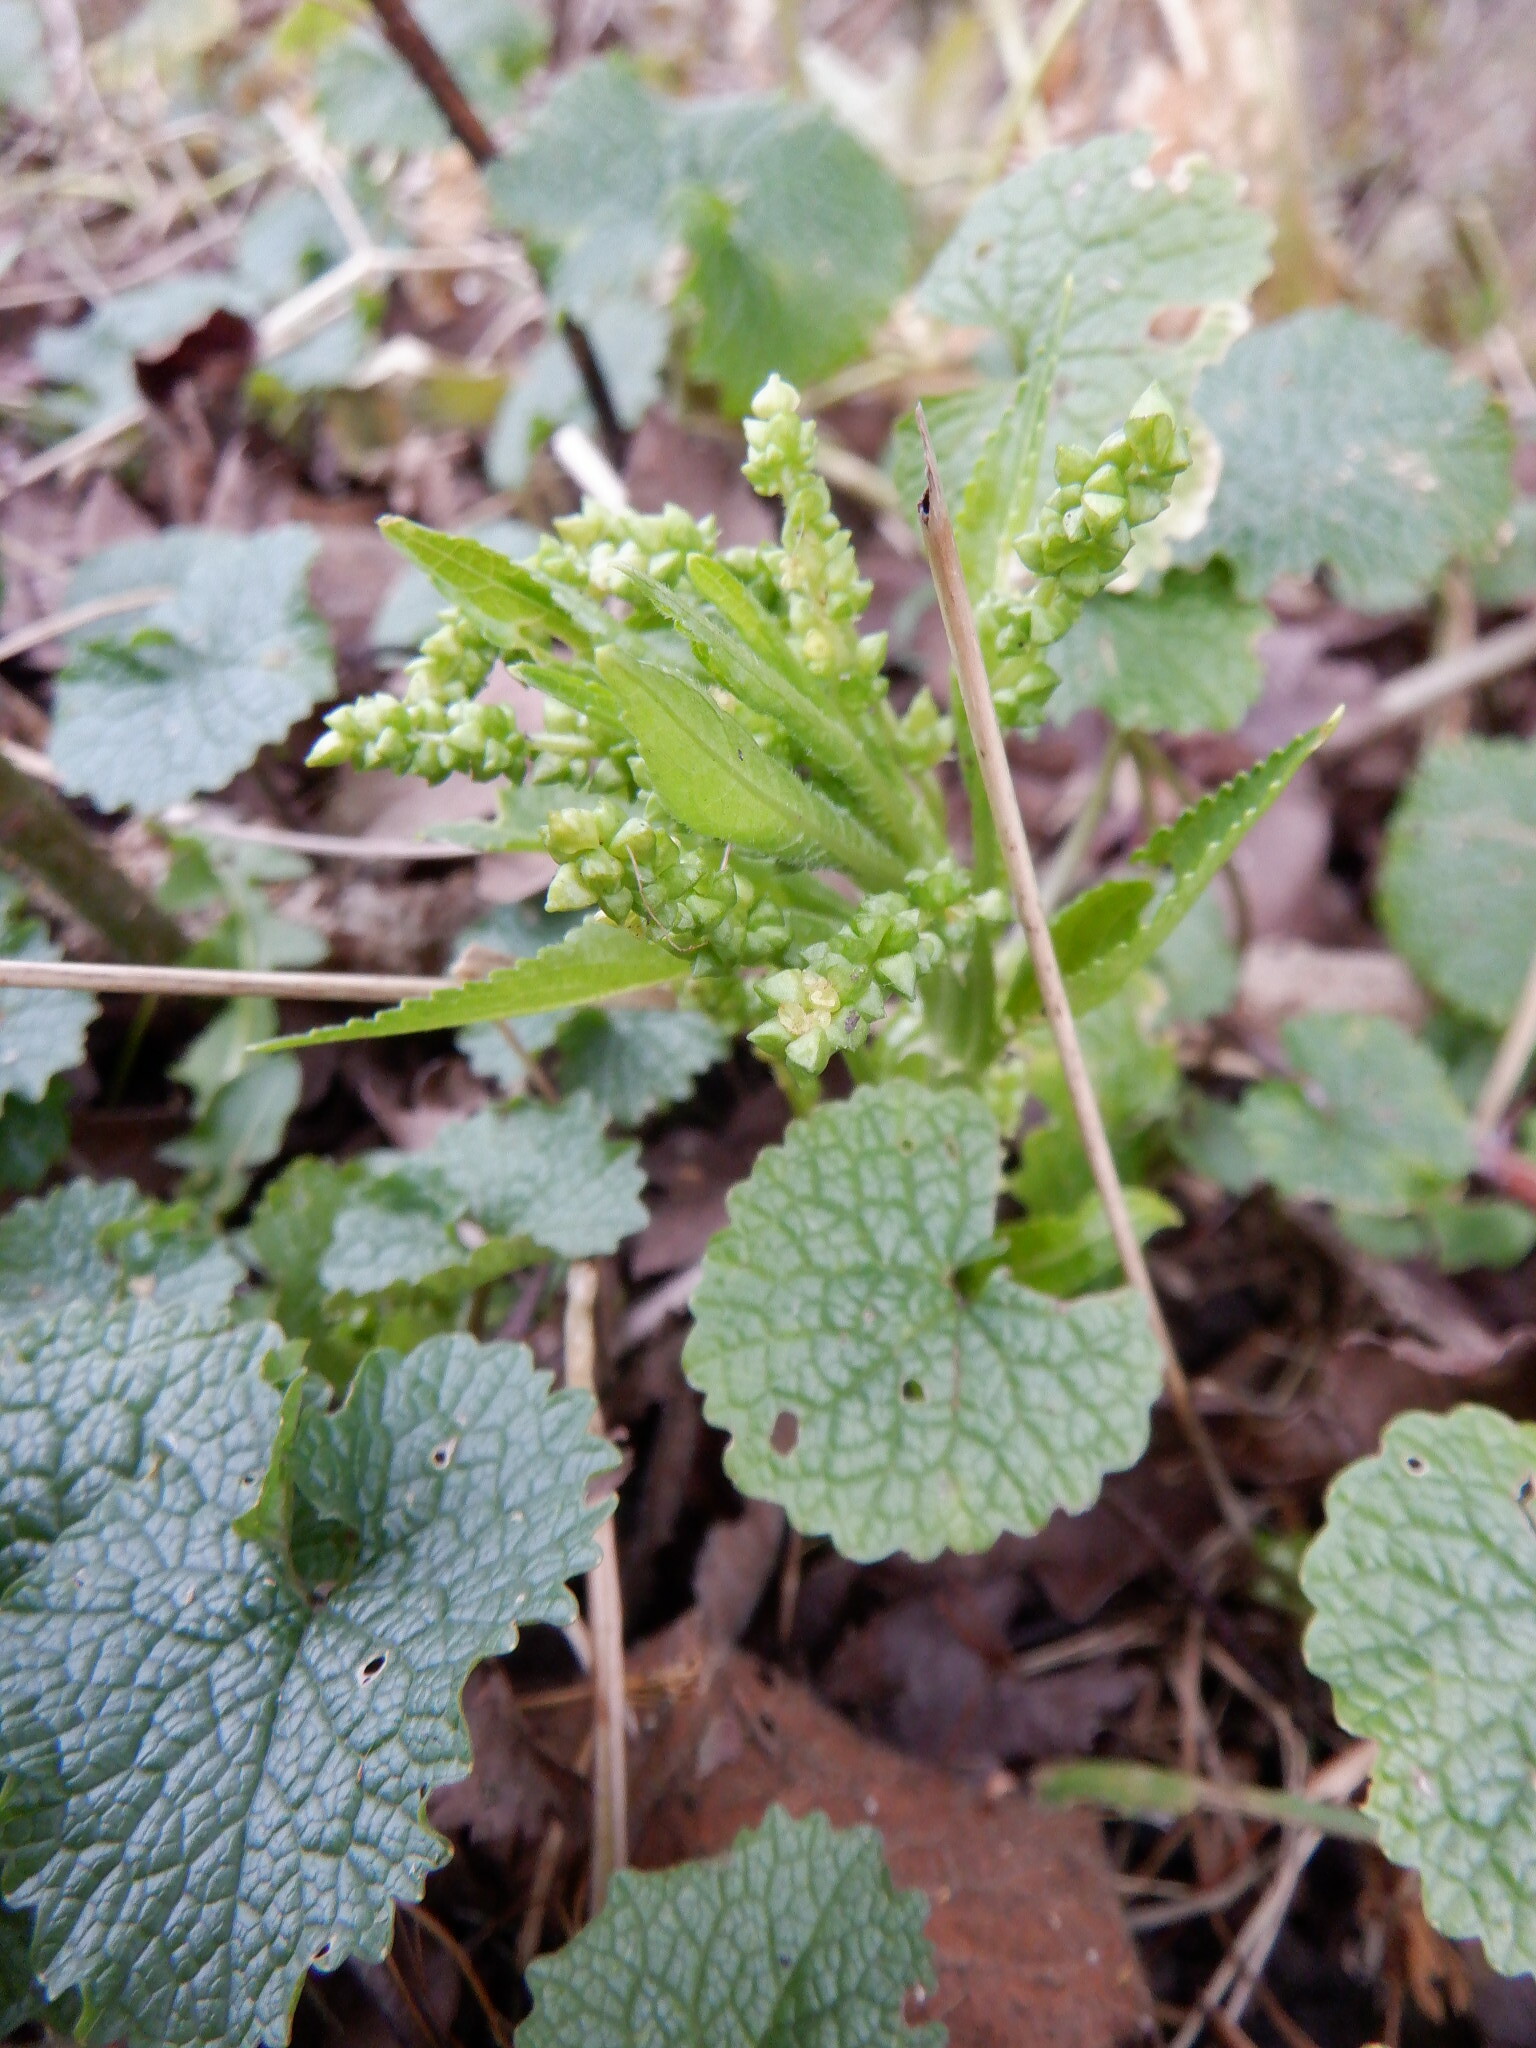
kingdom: Plantae
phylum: Tracheophyta
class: Magnoliopsida
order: Malpighiales
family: Euphorbiaceae
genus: Mercurialis
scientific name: Mercurialis perennis
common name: Dog mercury
